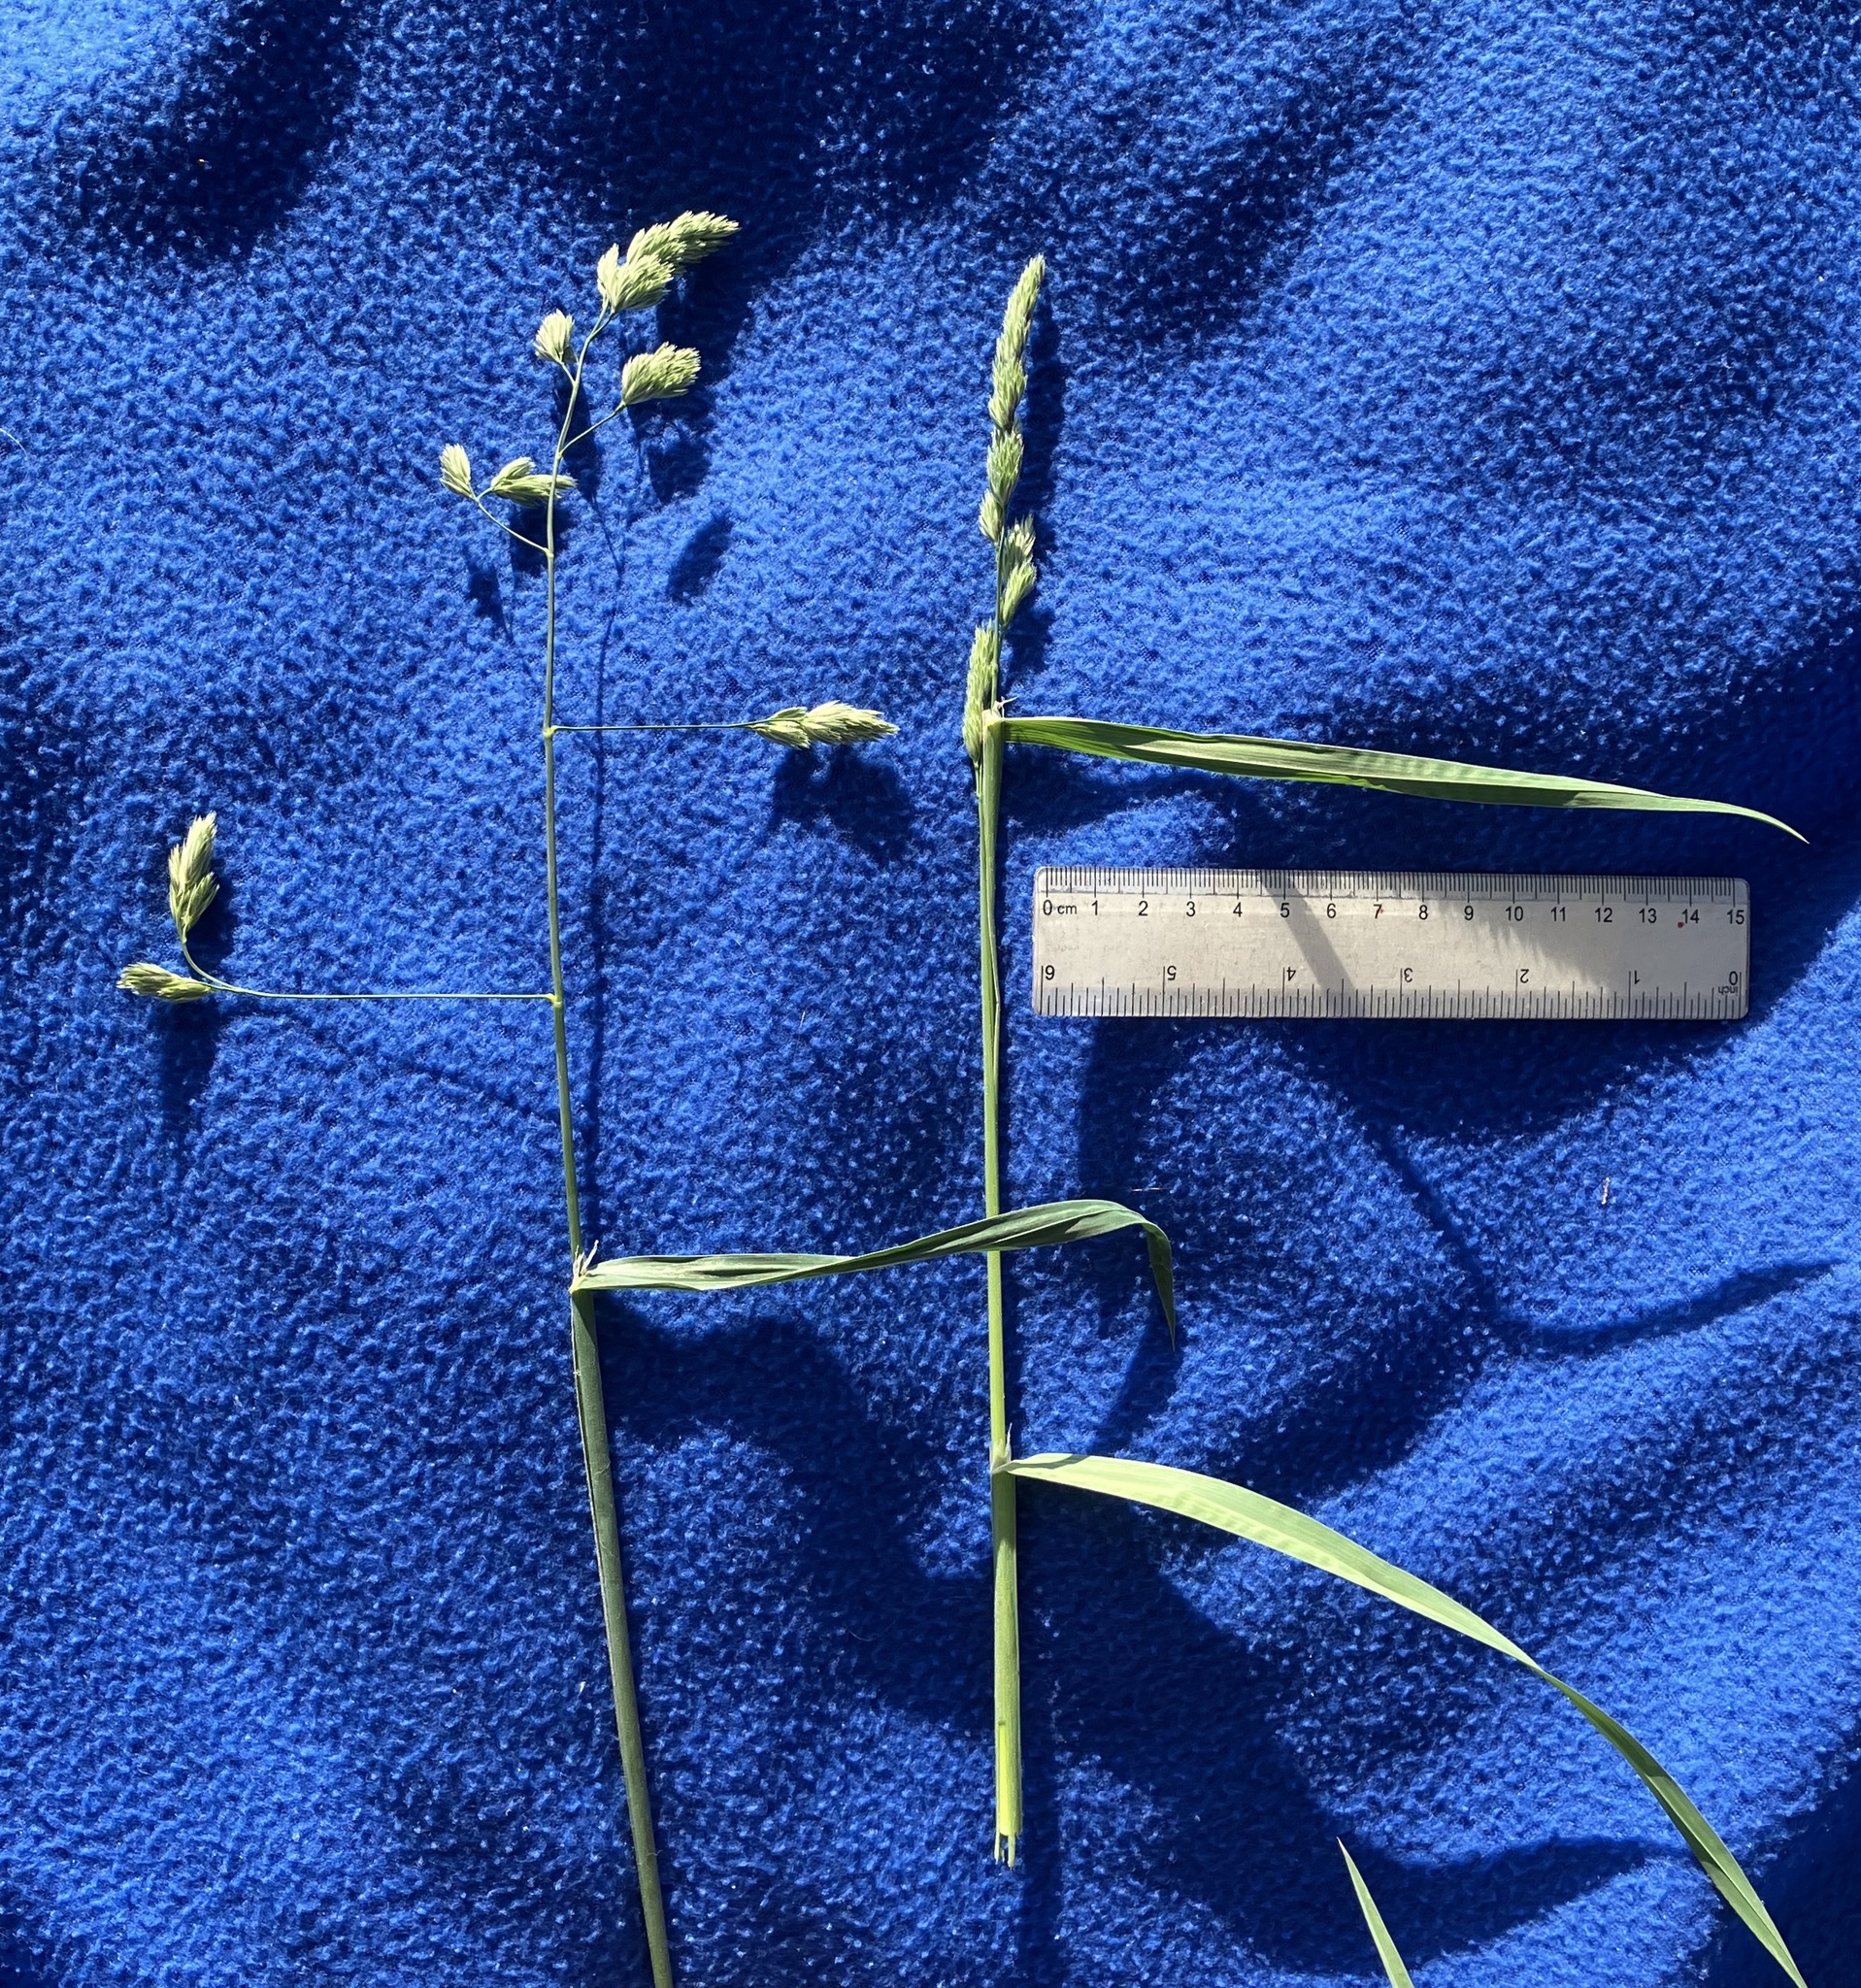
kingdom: Plantae
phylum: Tracheophyta
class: Liliopsida
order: Poales
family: Poaceae
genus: Dactylis
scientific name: Dactylis glomerata
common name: Orchardgrass
